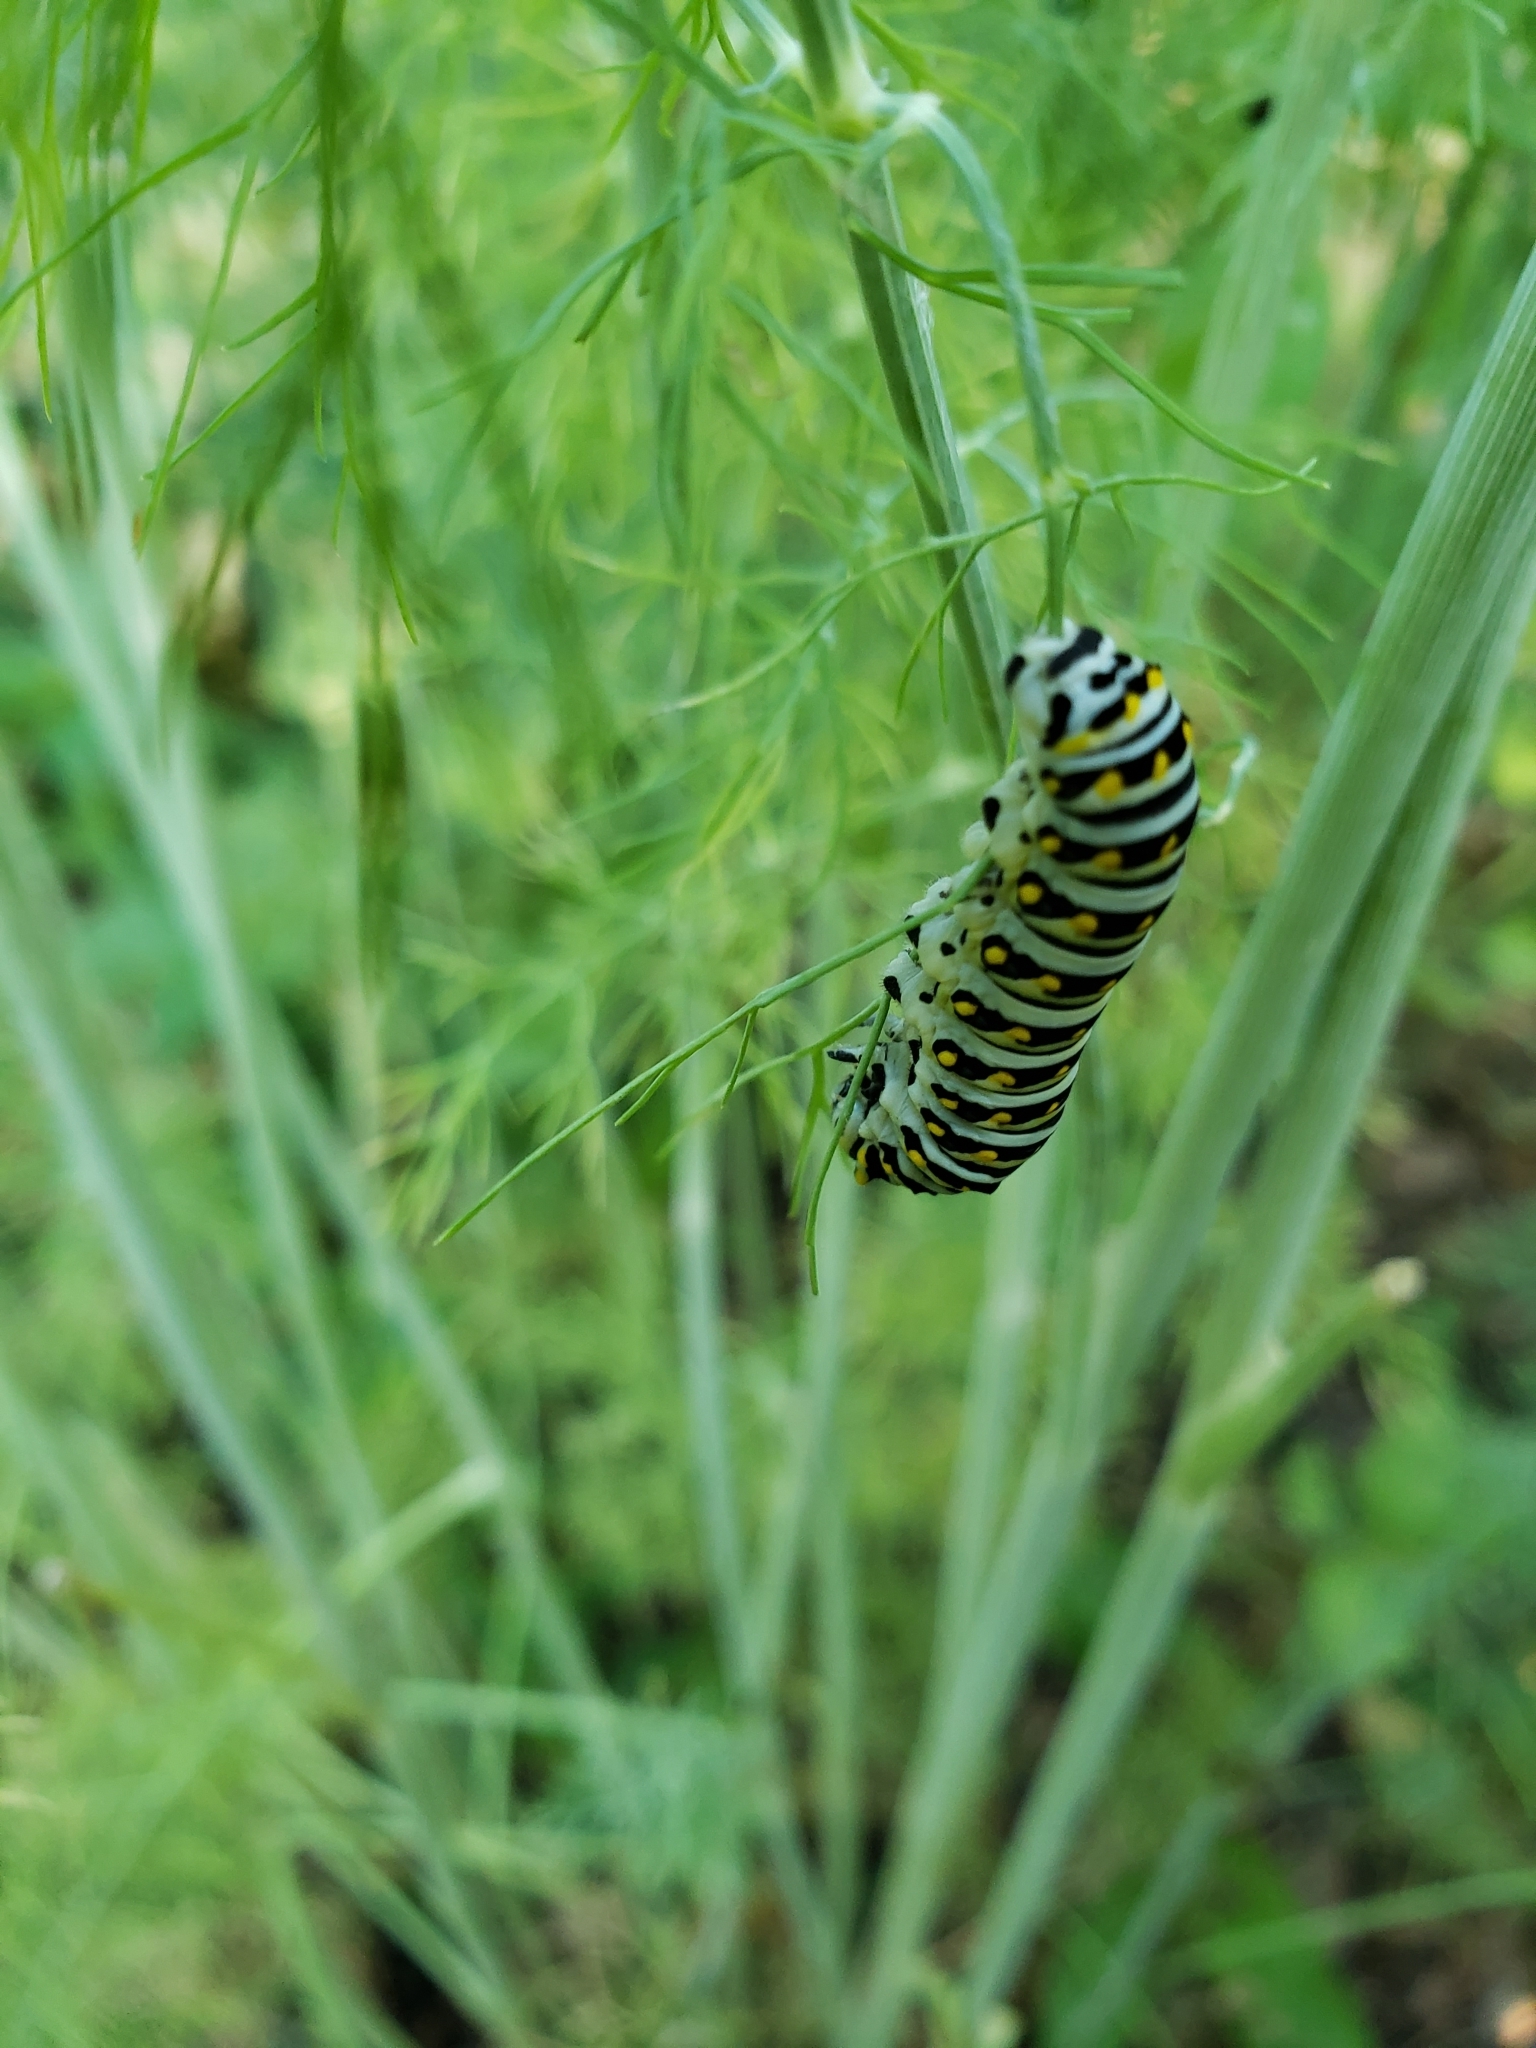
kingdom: Animalia
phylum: Arthropoda
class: Insecta
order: Lepidoptera
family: Papilionidae
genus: Papilio
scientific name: Papilio polyxenes
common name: Black swallowtail
